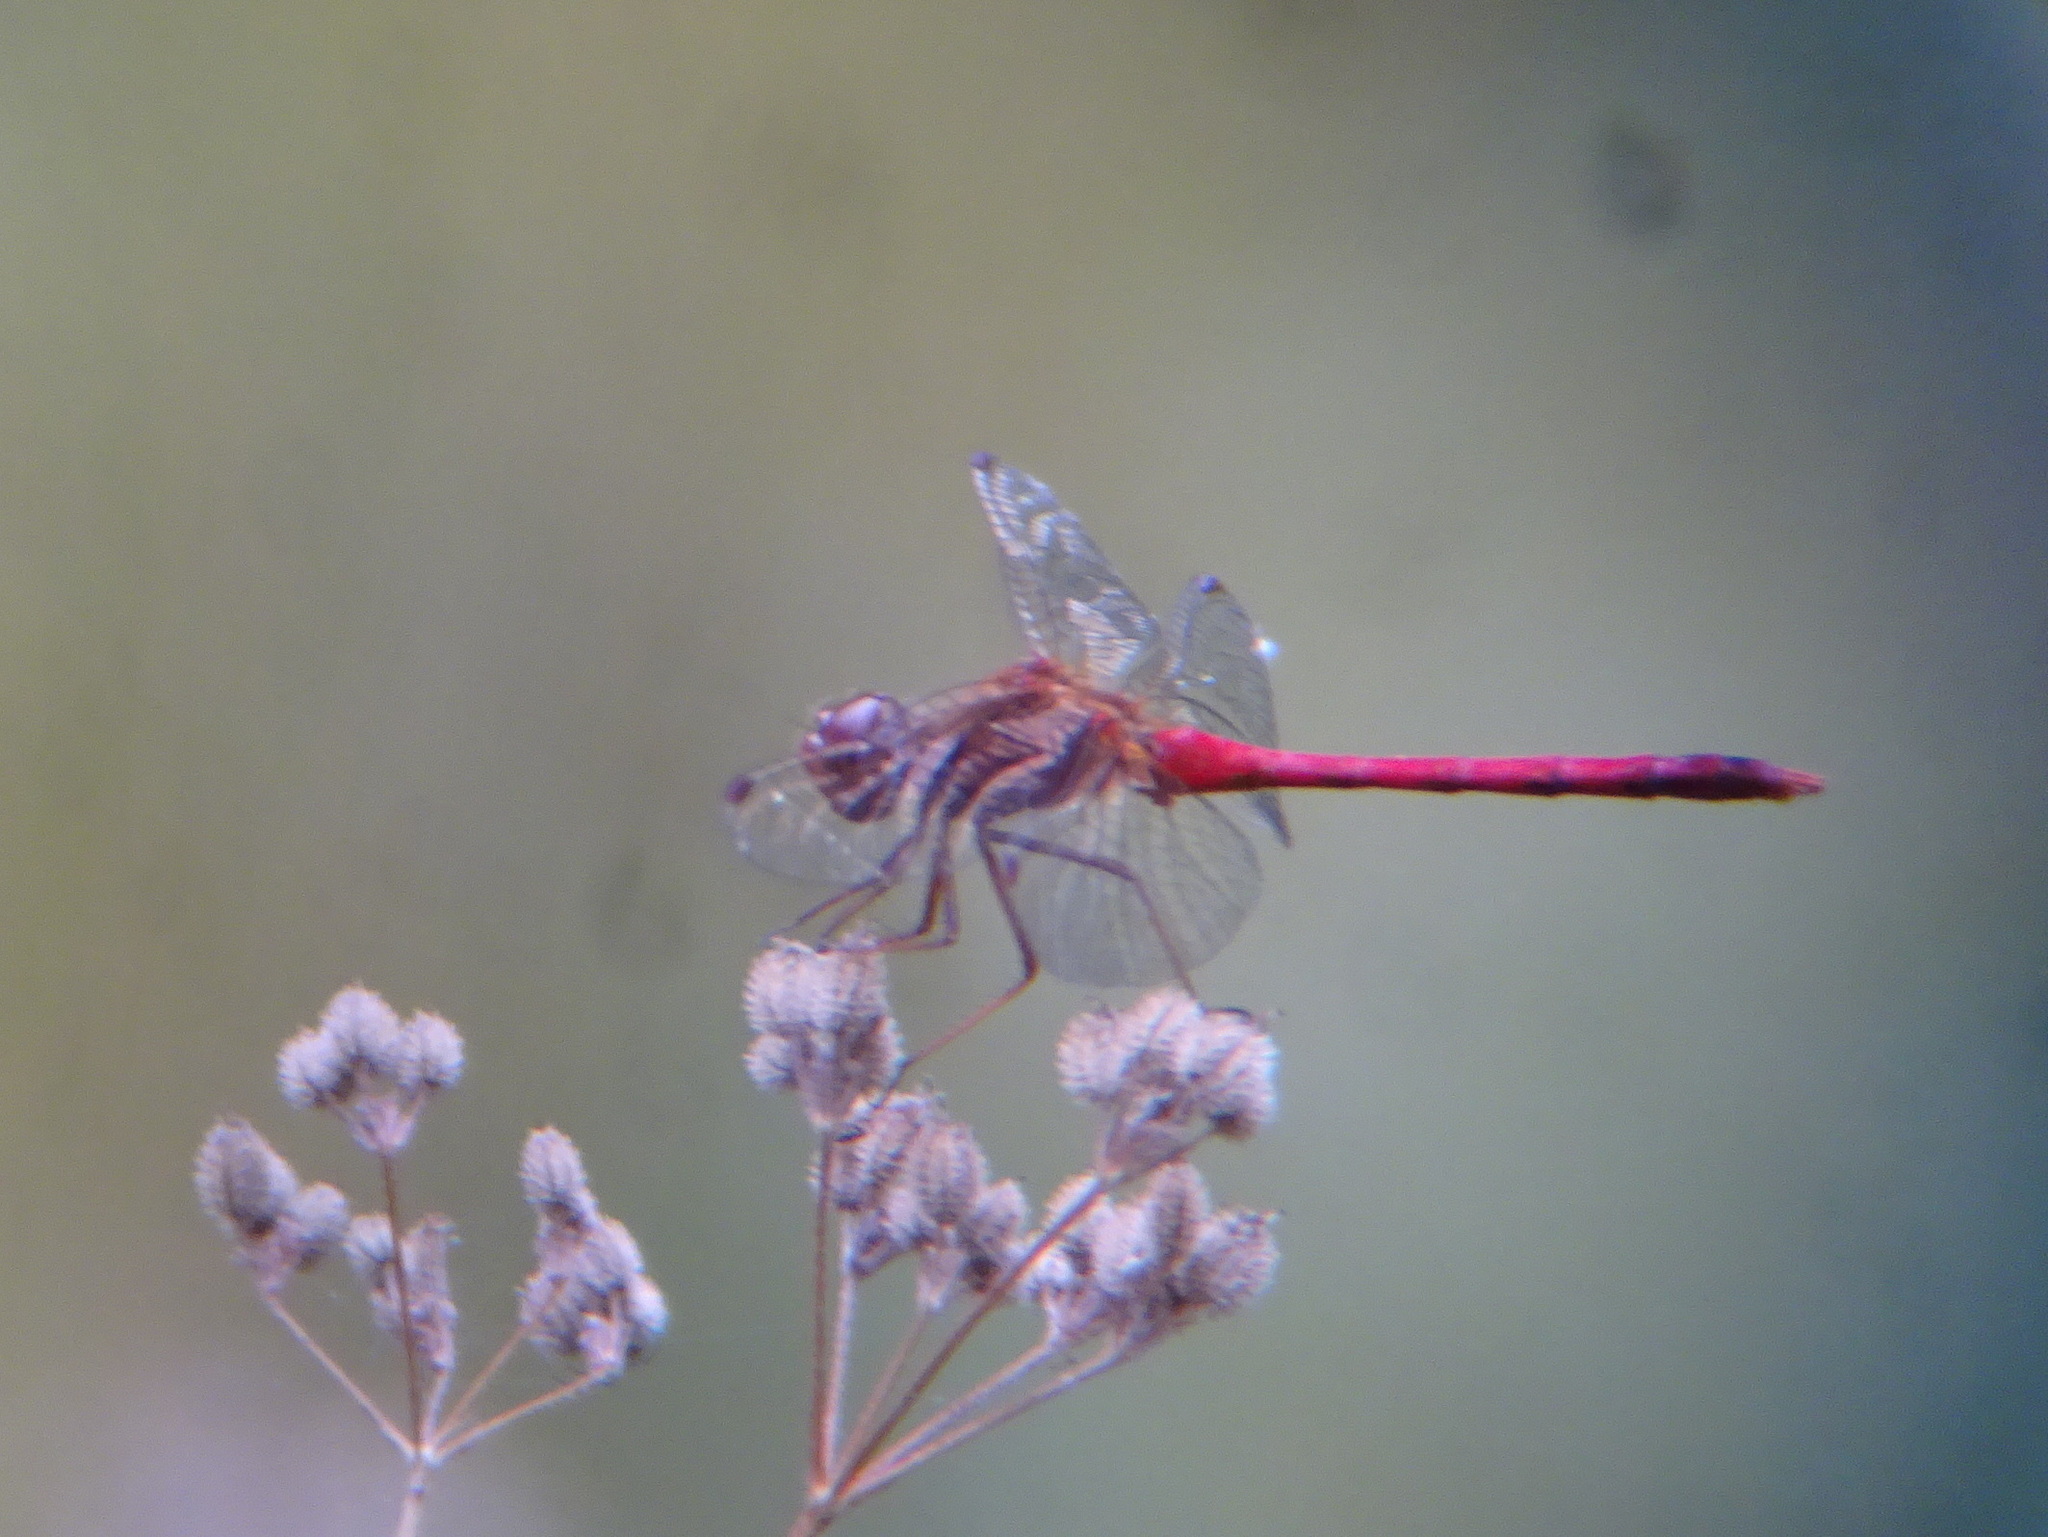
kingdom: Animalia
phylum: Arthropoda
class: Insecta
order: Odonata
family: Libellulidae
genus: Sympetrum
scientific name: Sympetrum vicinum
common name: Autumn meadowhawk
